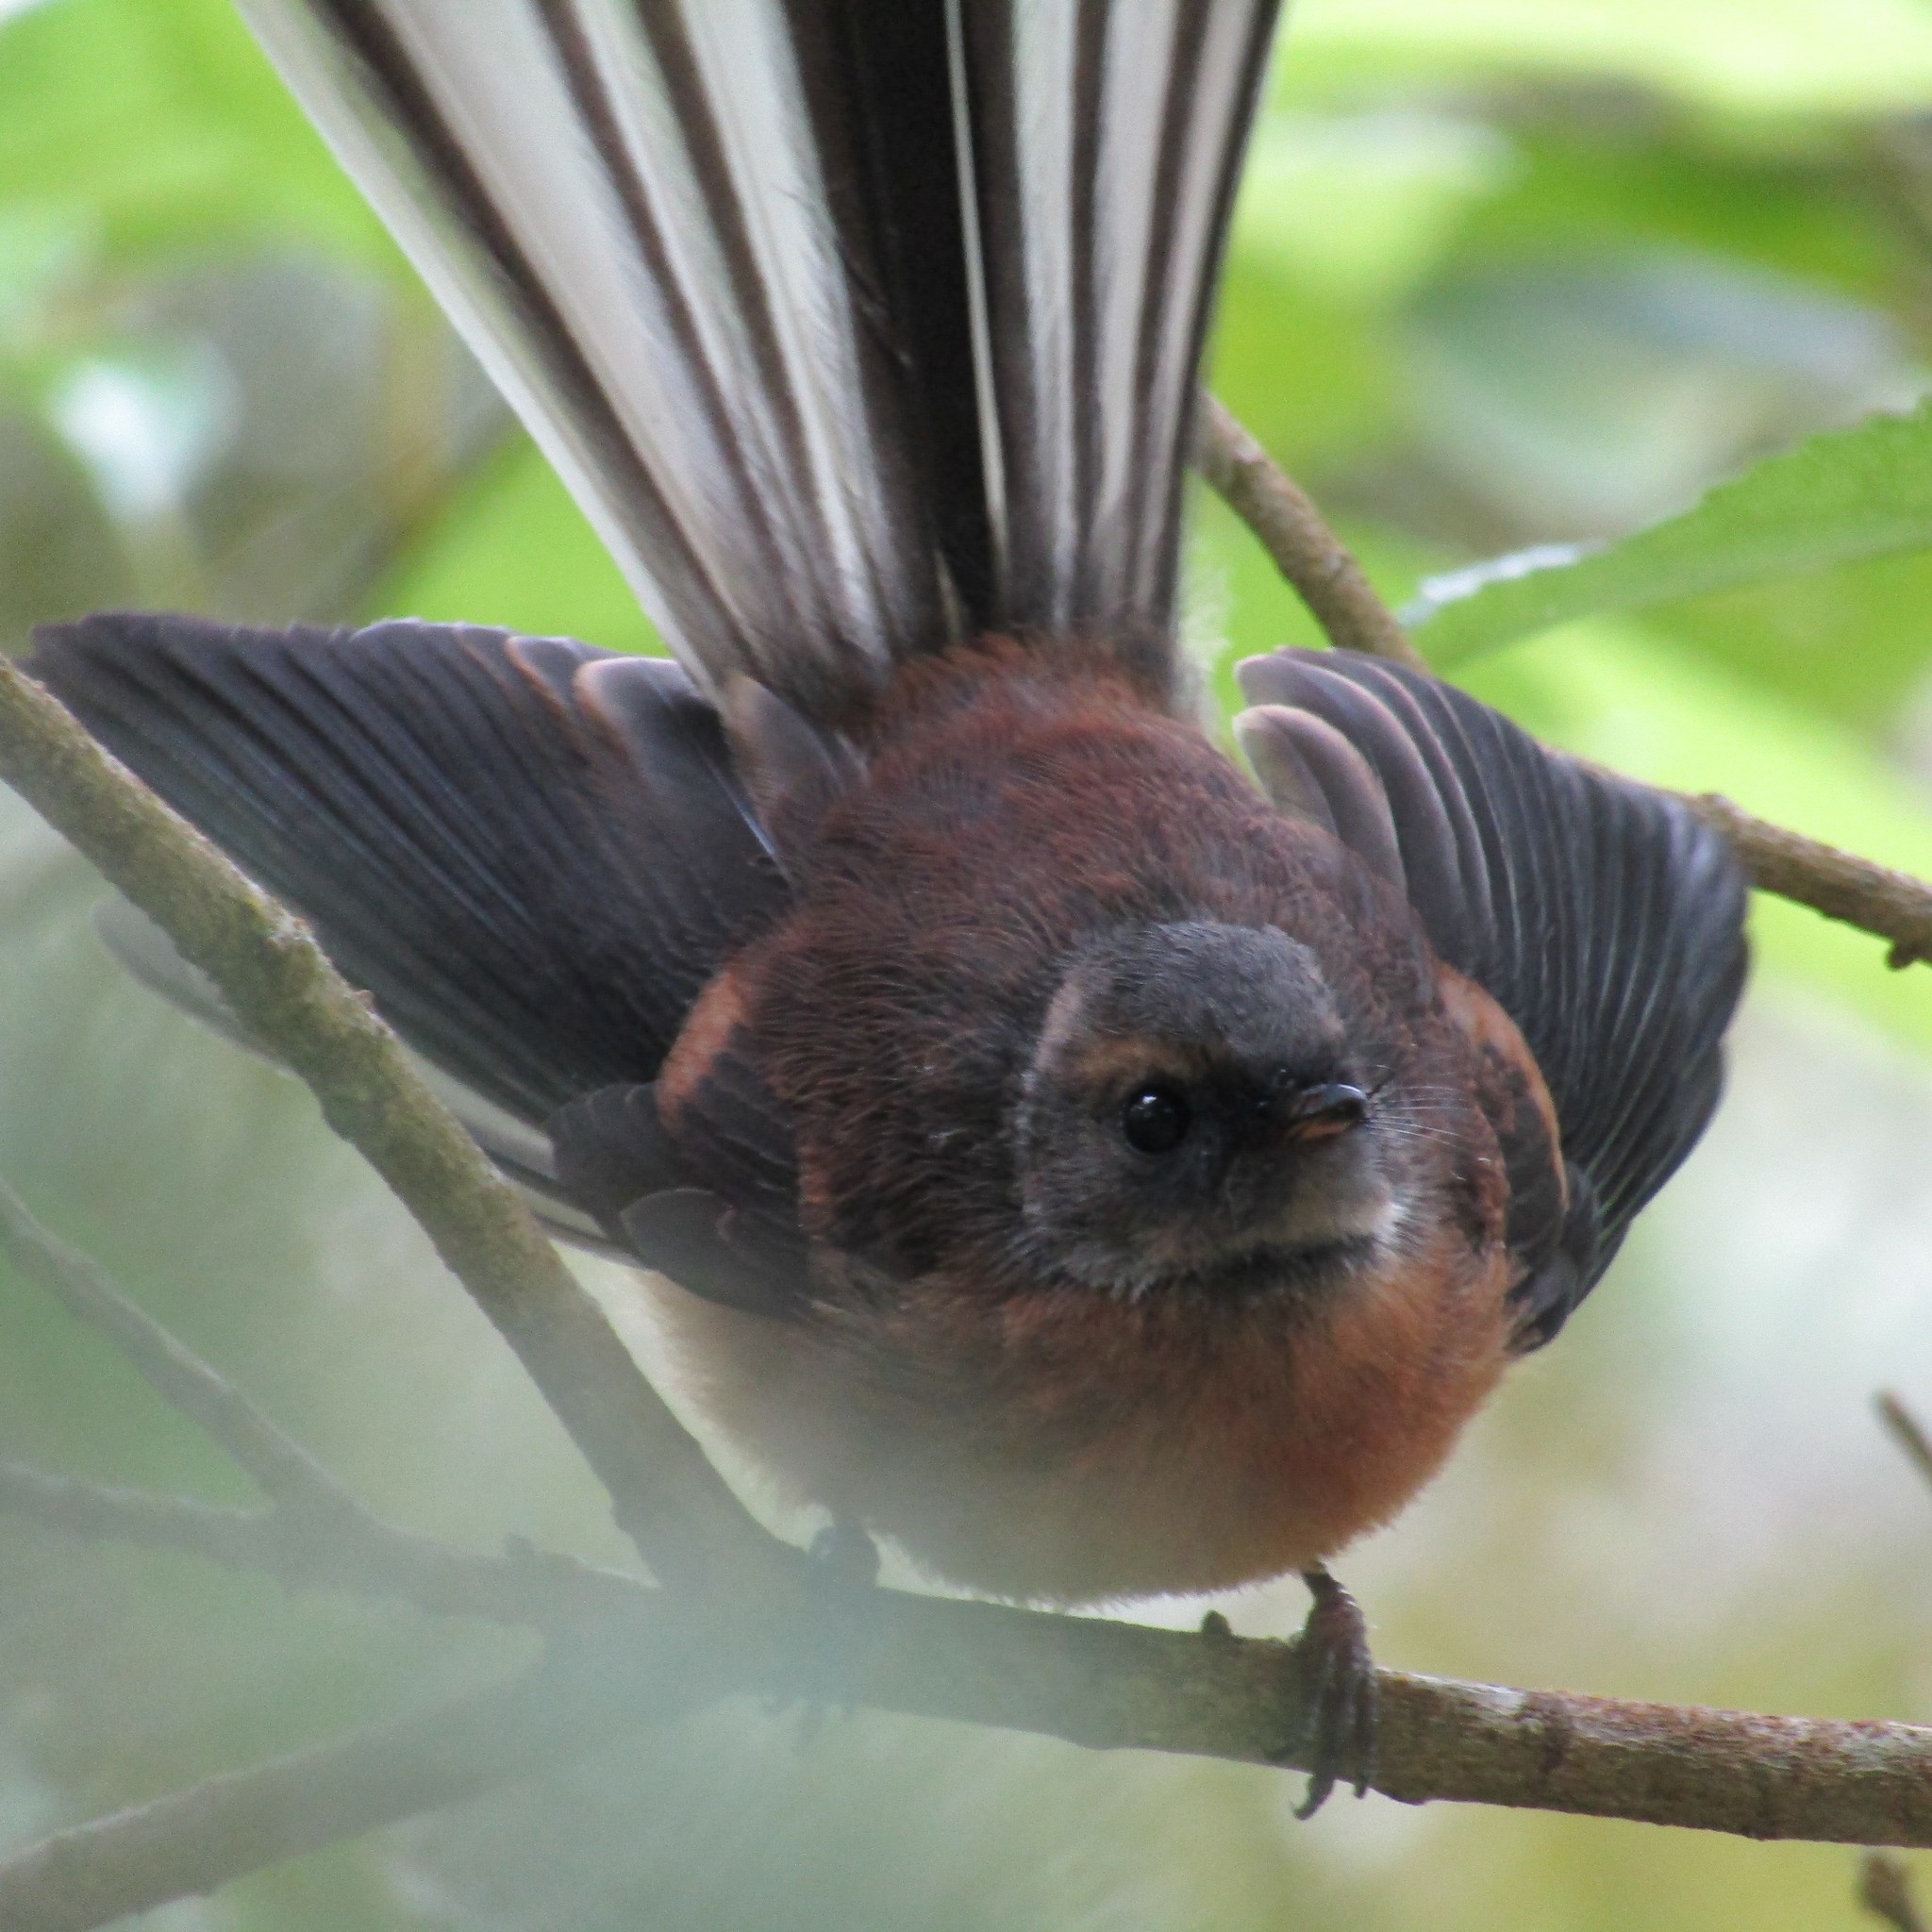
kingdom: Animalia
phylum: Chordata
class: Aves
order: Passeriformes
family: Rhipiduridae
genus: Rhipidura
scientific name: Rhipidura fuliginosa
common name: New zealand fantail
